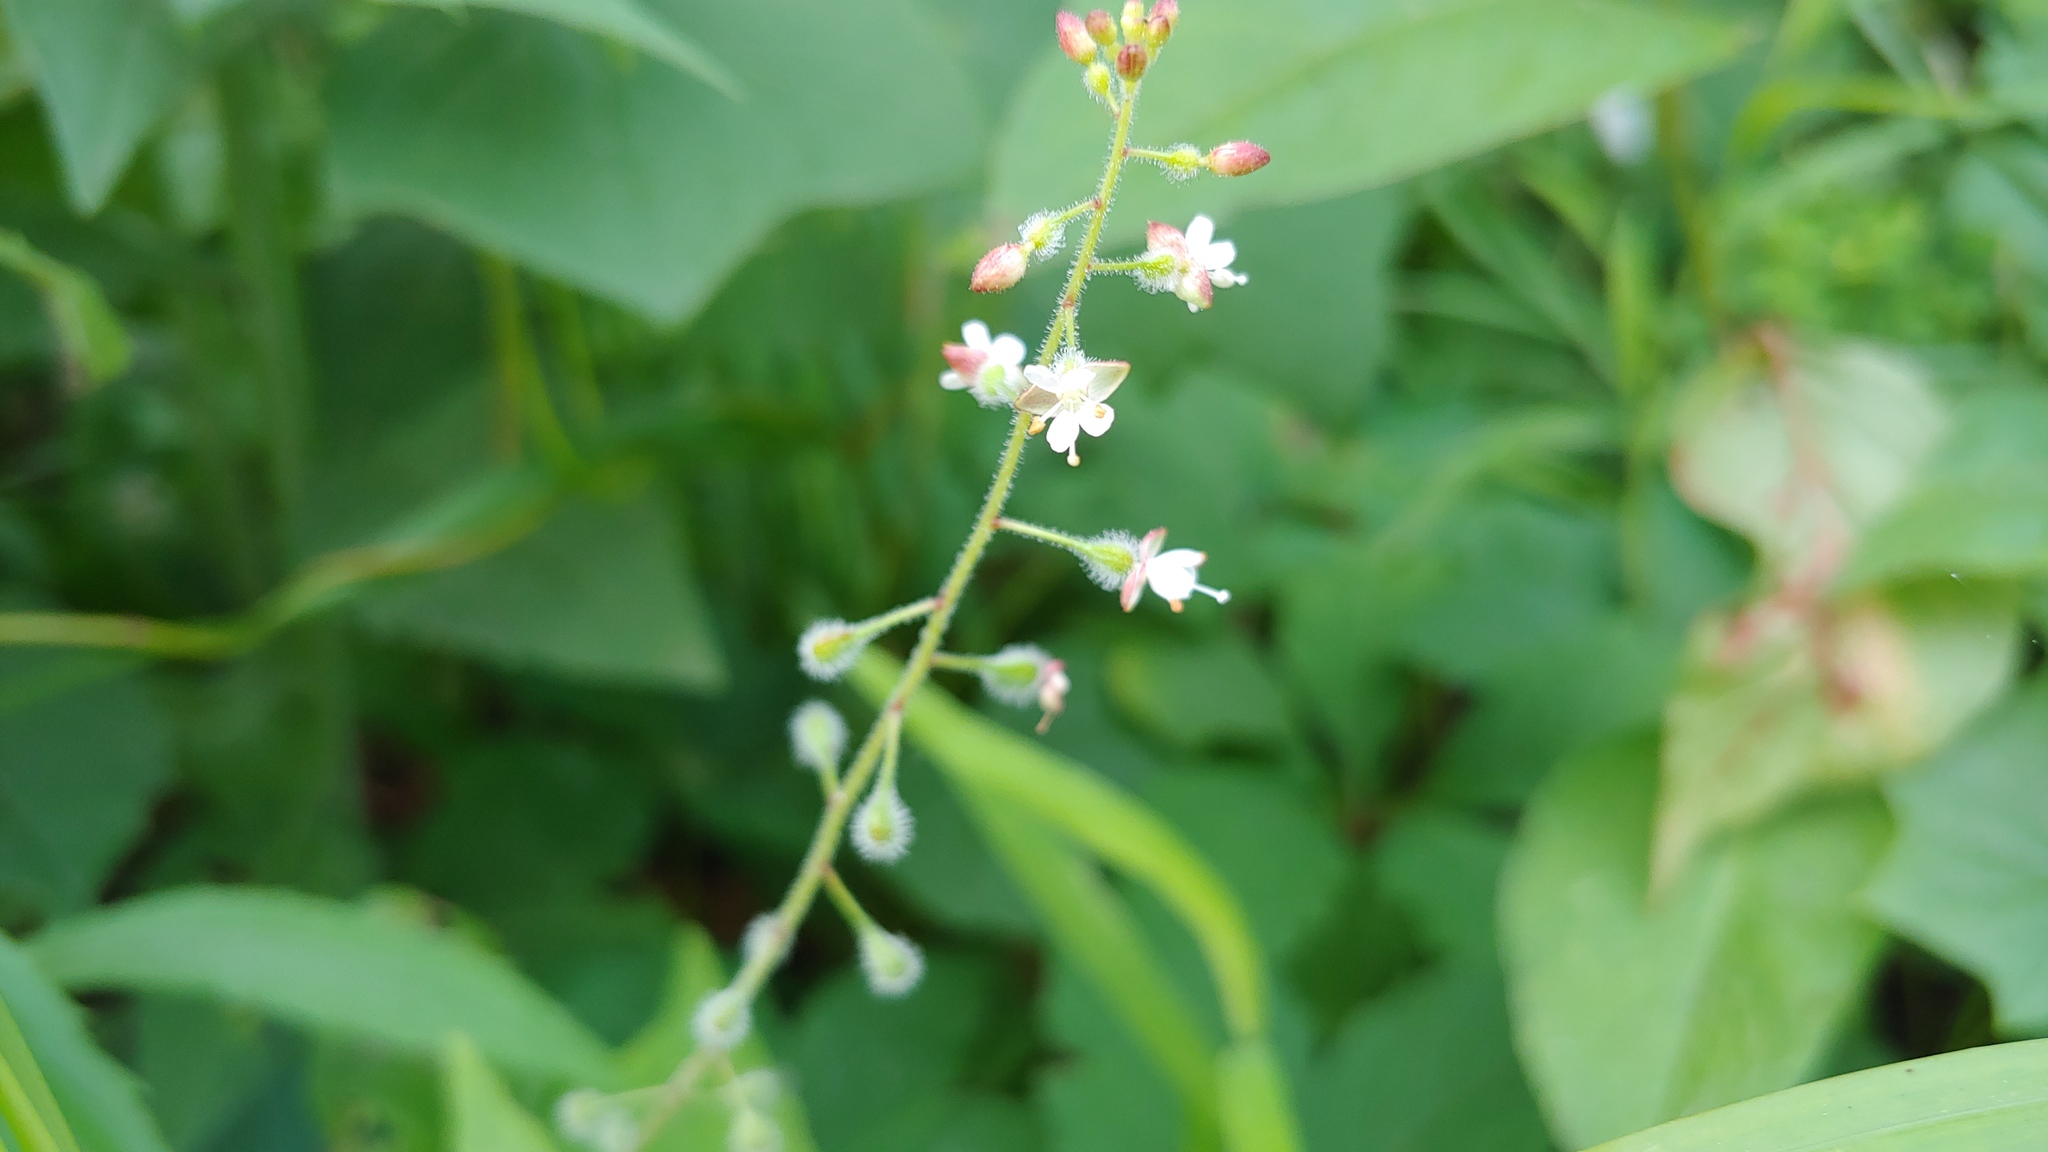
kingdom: Plantae
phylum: Tracheophyta
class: Magnoliopsida
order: Myrtales
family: Onagraceae
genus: Circaea
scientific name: Circaea canadensis
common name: Broad-leaved enchanter's nightshade
